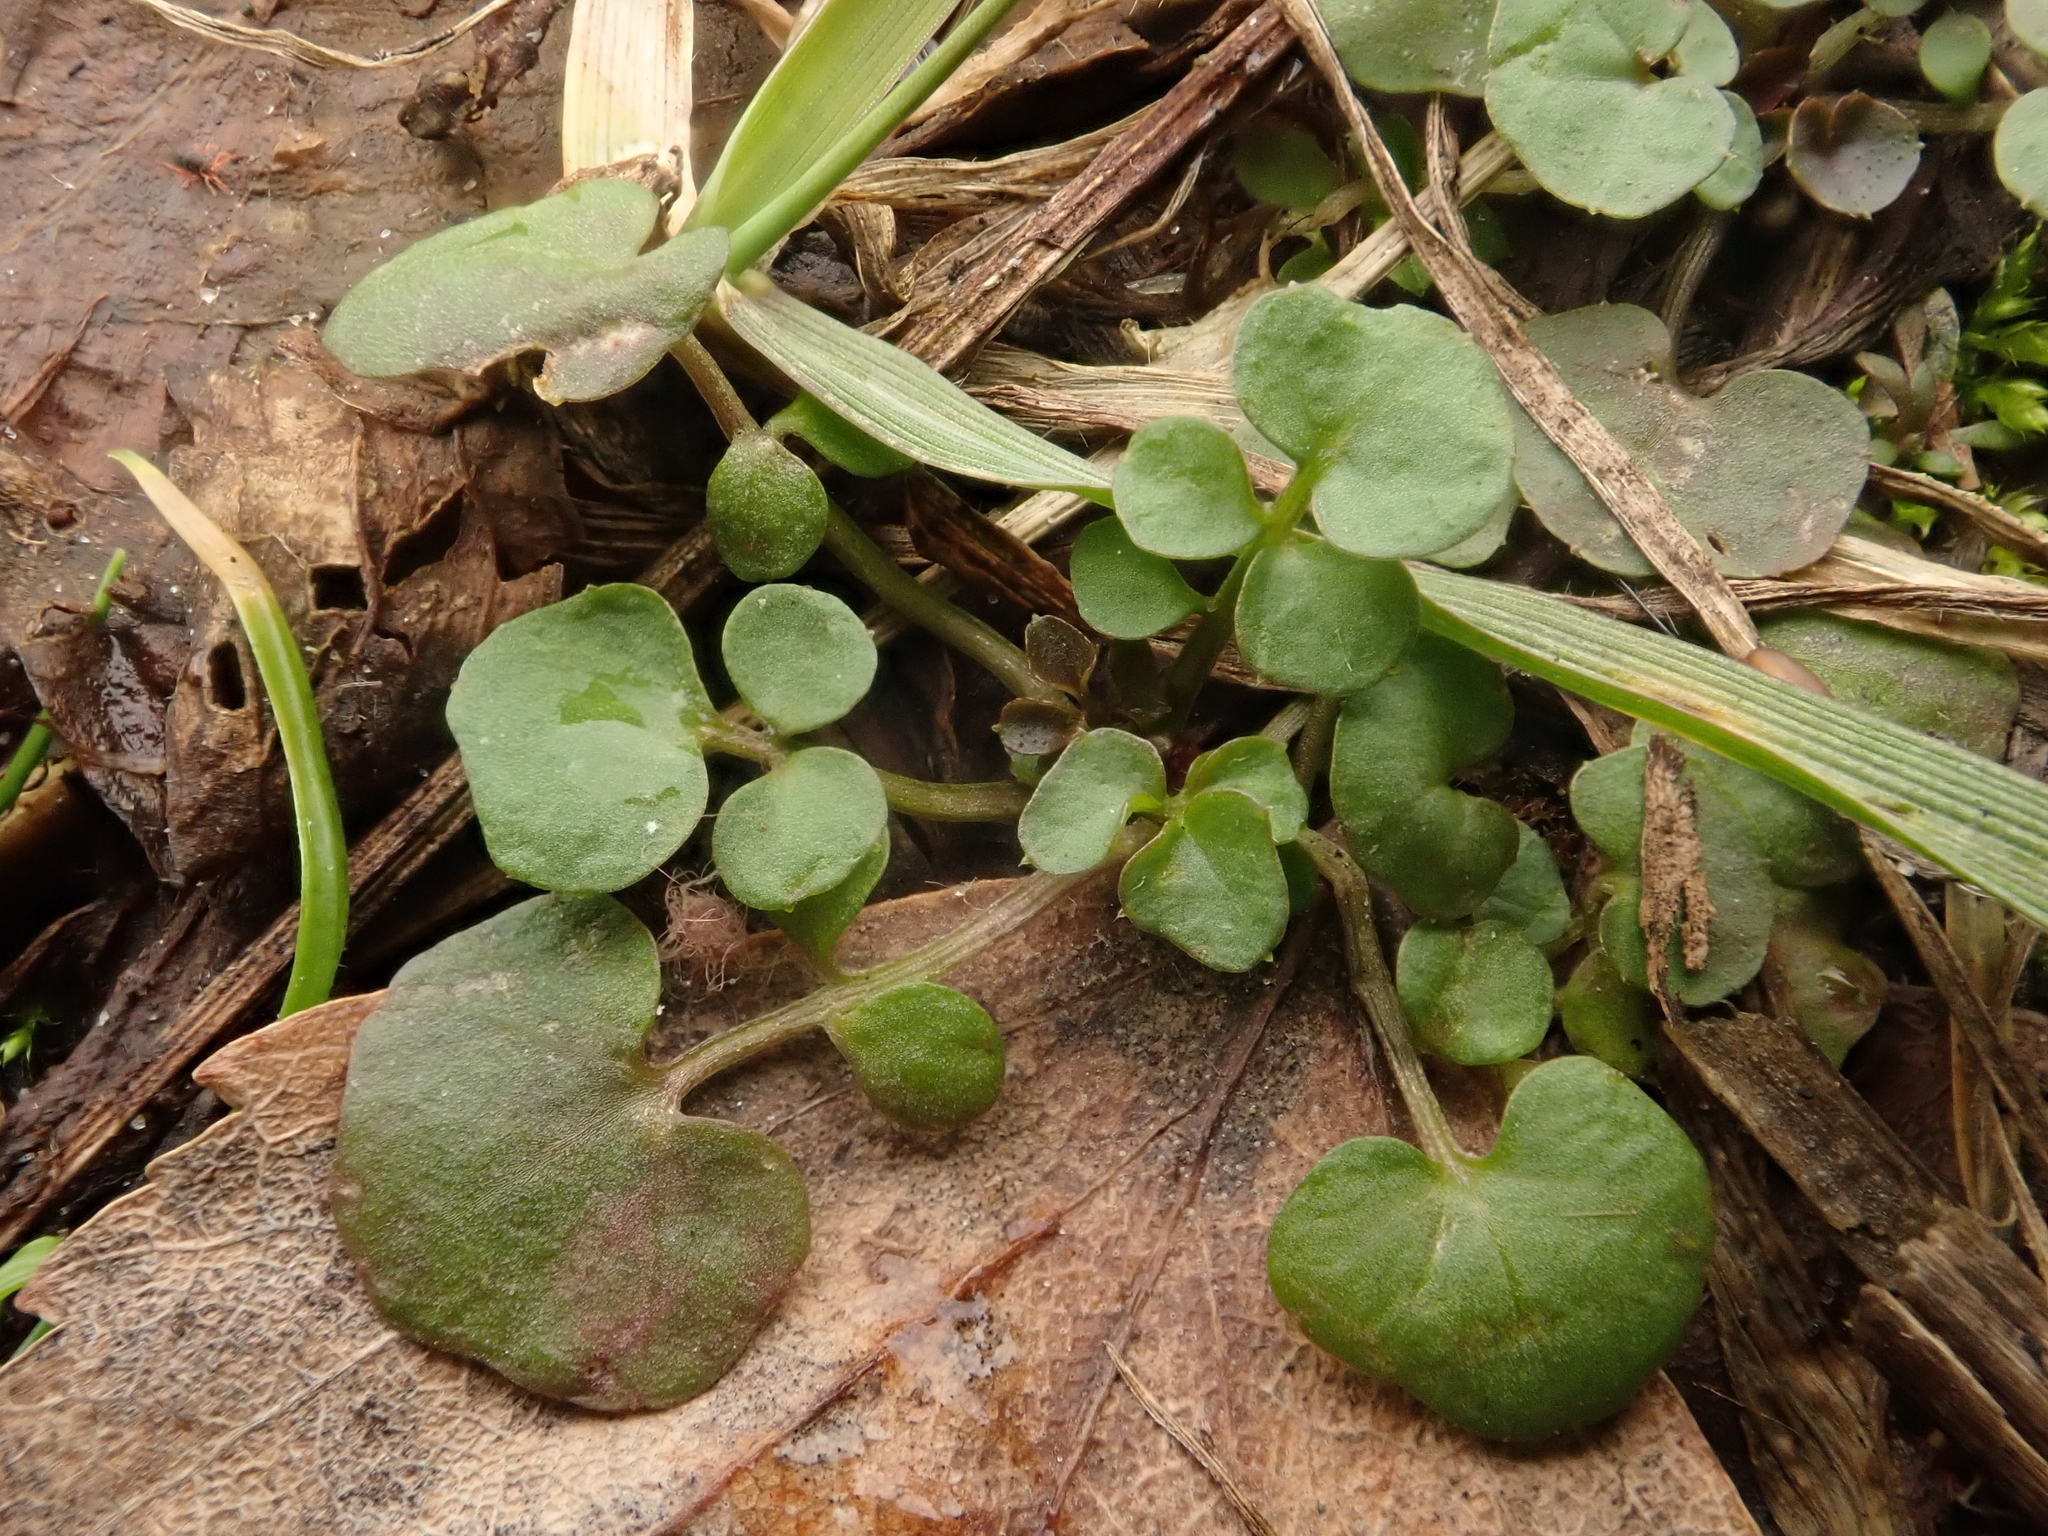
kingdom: Plantae
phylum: Tracheophyta
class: Magnoliopsida
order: Brassicales
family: Brassicaceae
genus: Cardamine
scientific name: Cardamine hirsuta
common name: Hairy bittercress
